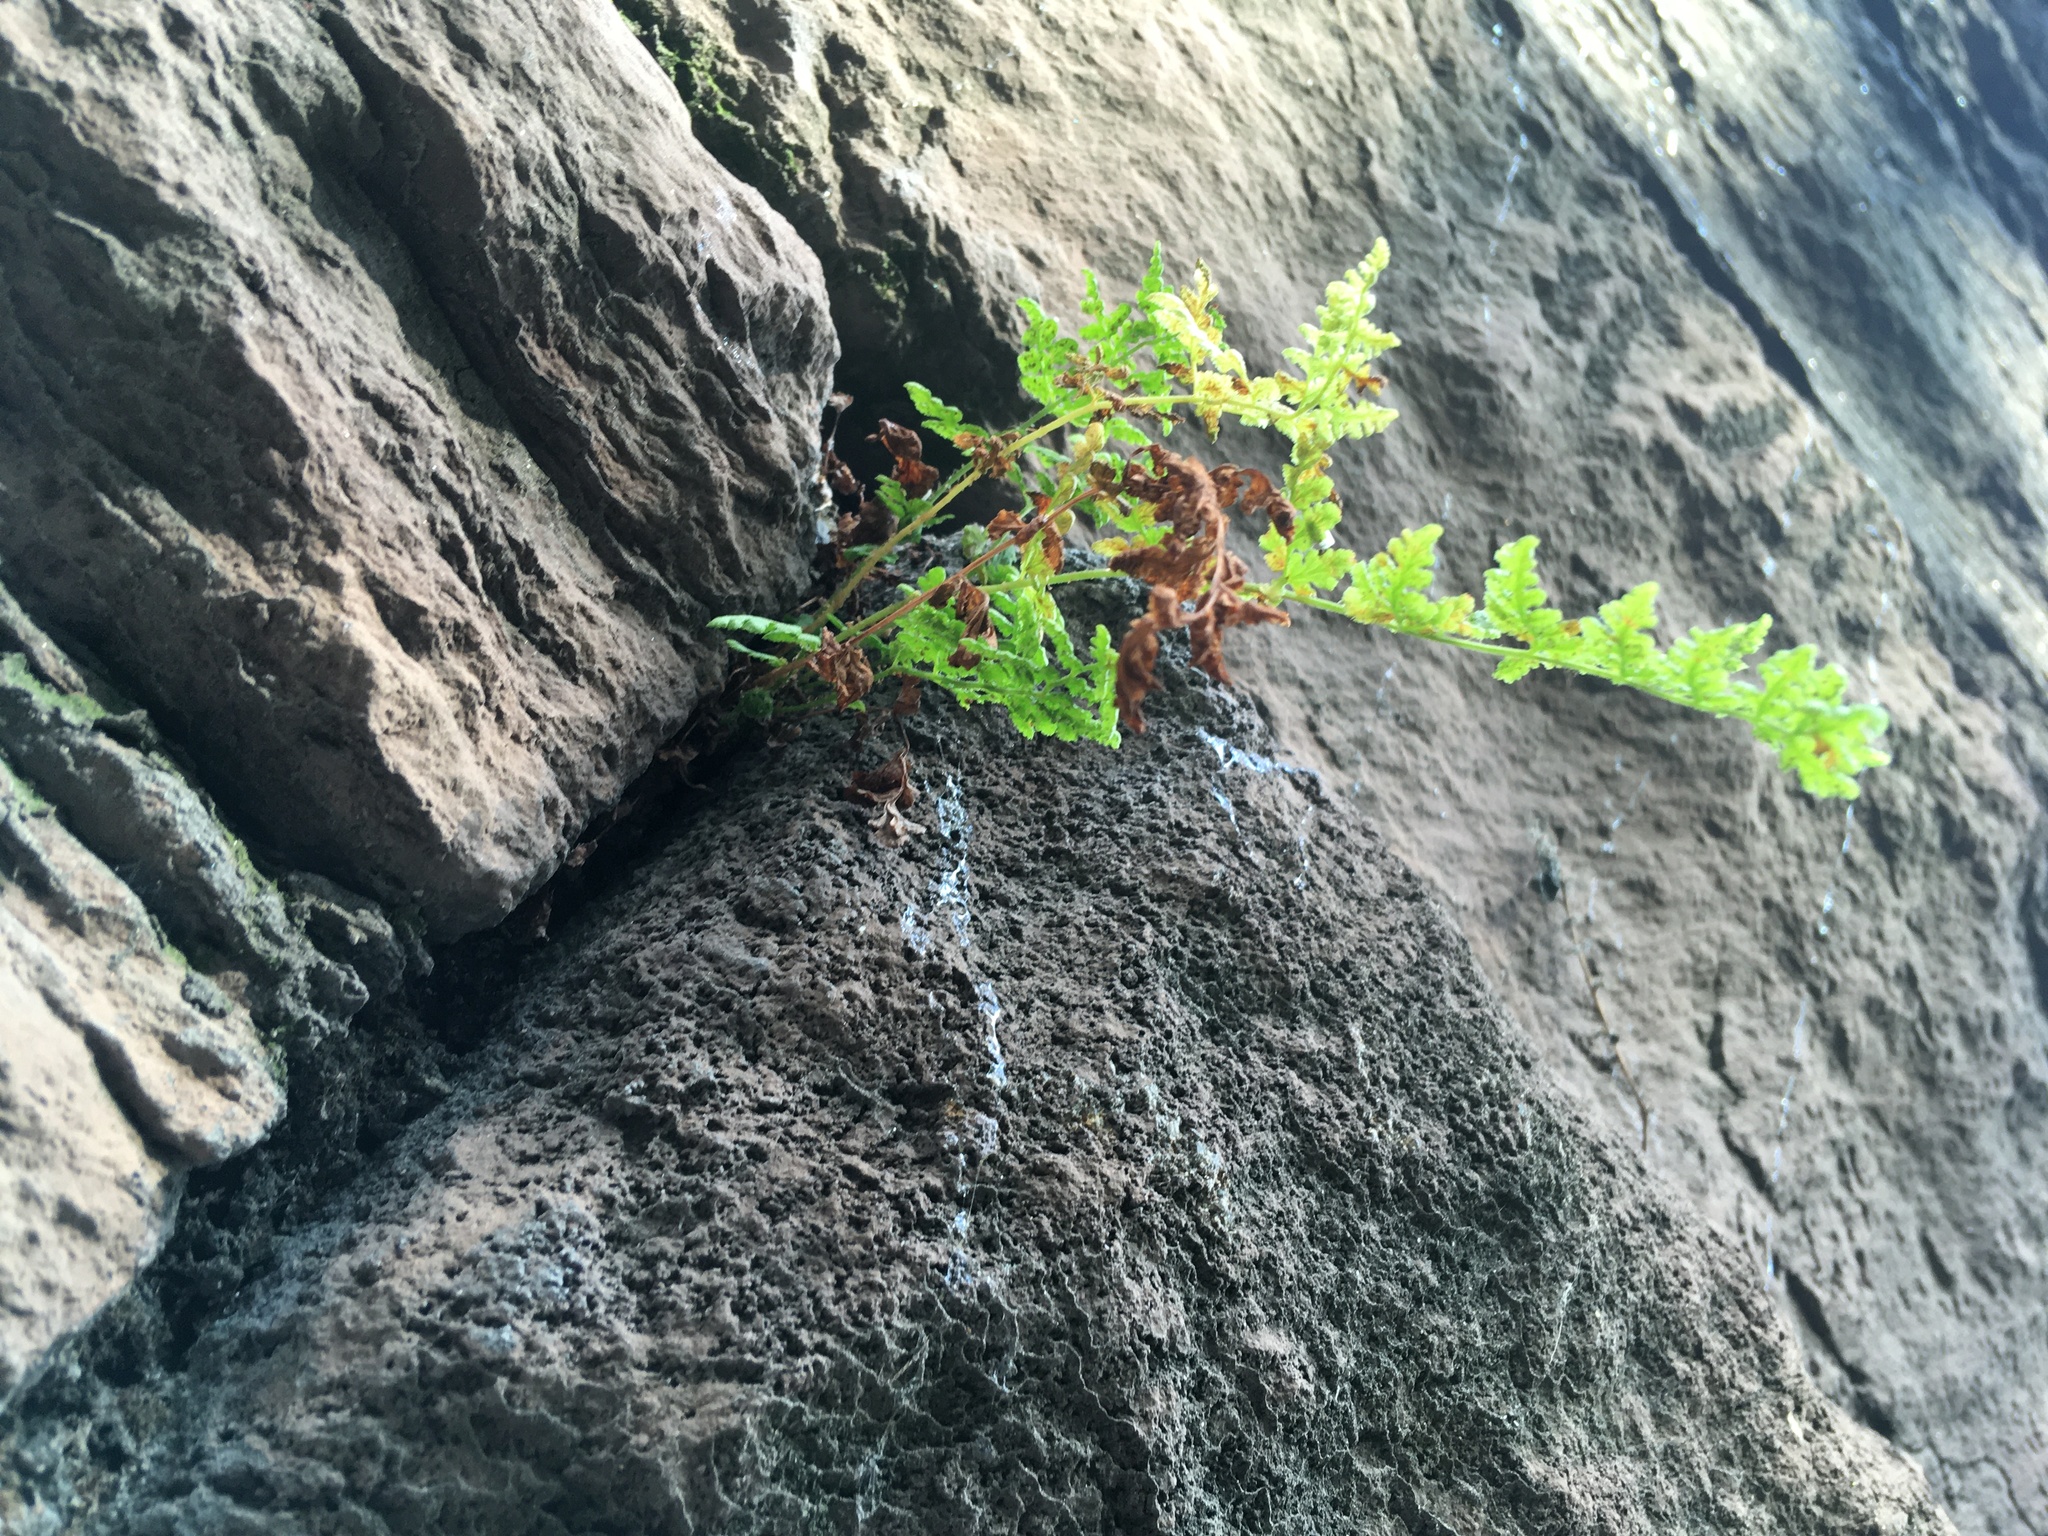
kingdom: Plantae
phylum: Tracheophyta
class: Polypodiopsida
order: Polypodiales
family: Woodsiaceae
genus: Physematium
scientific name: Physematium obtusum
